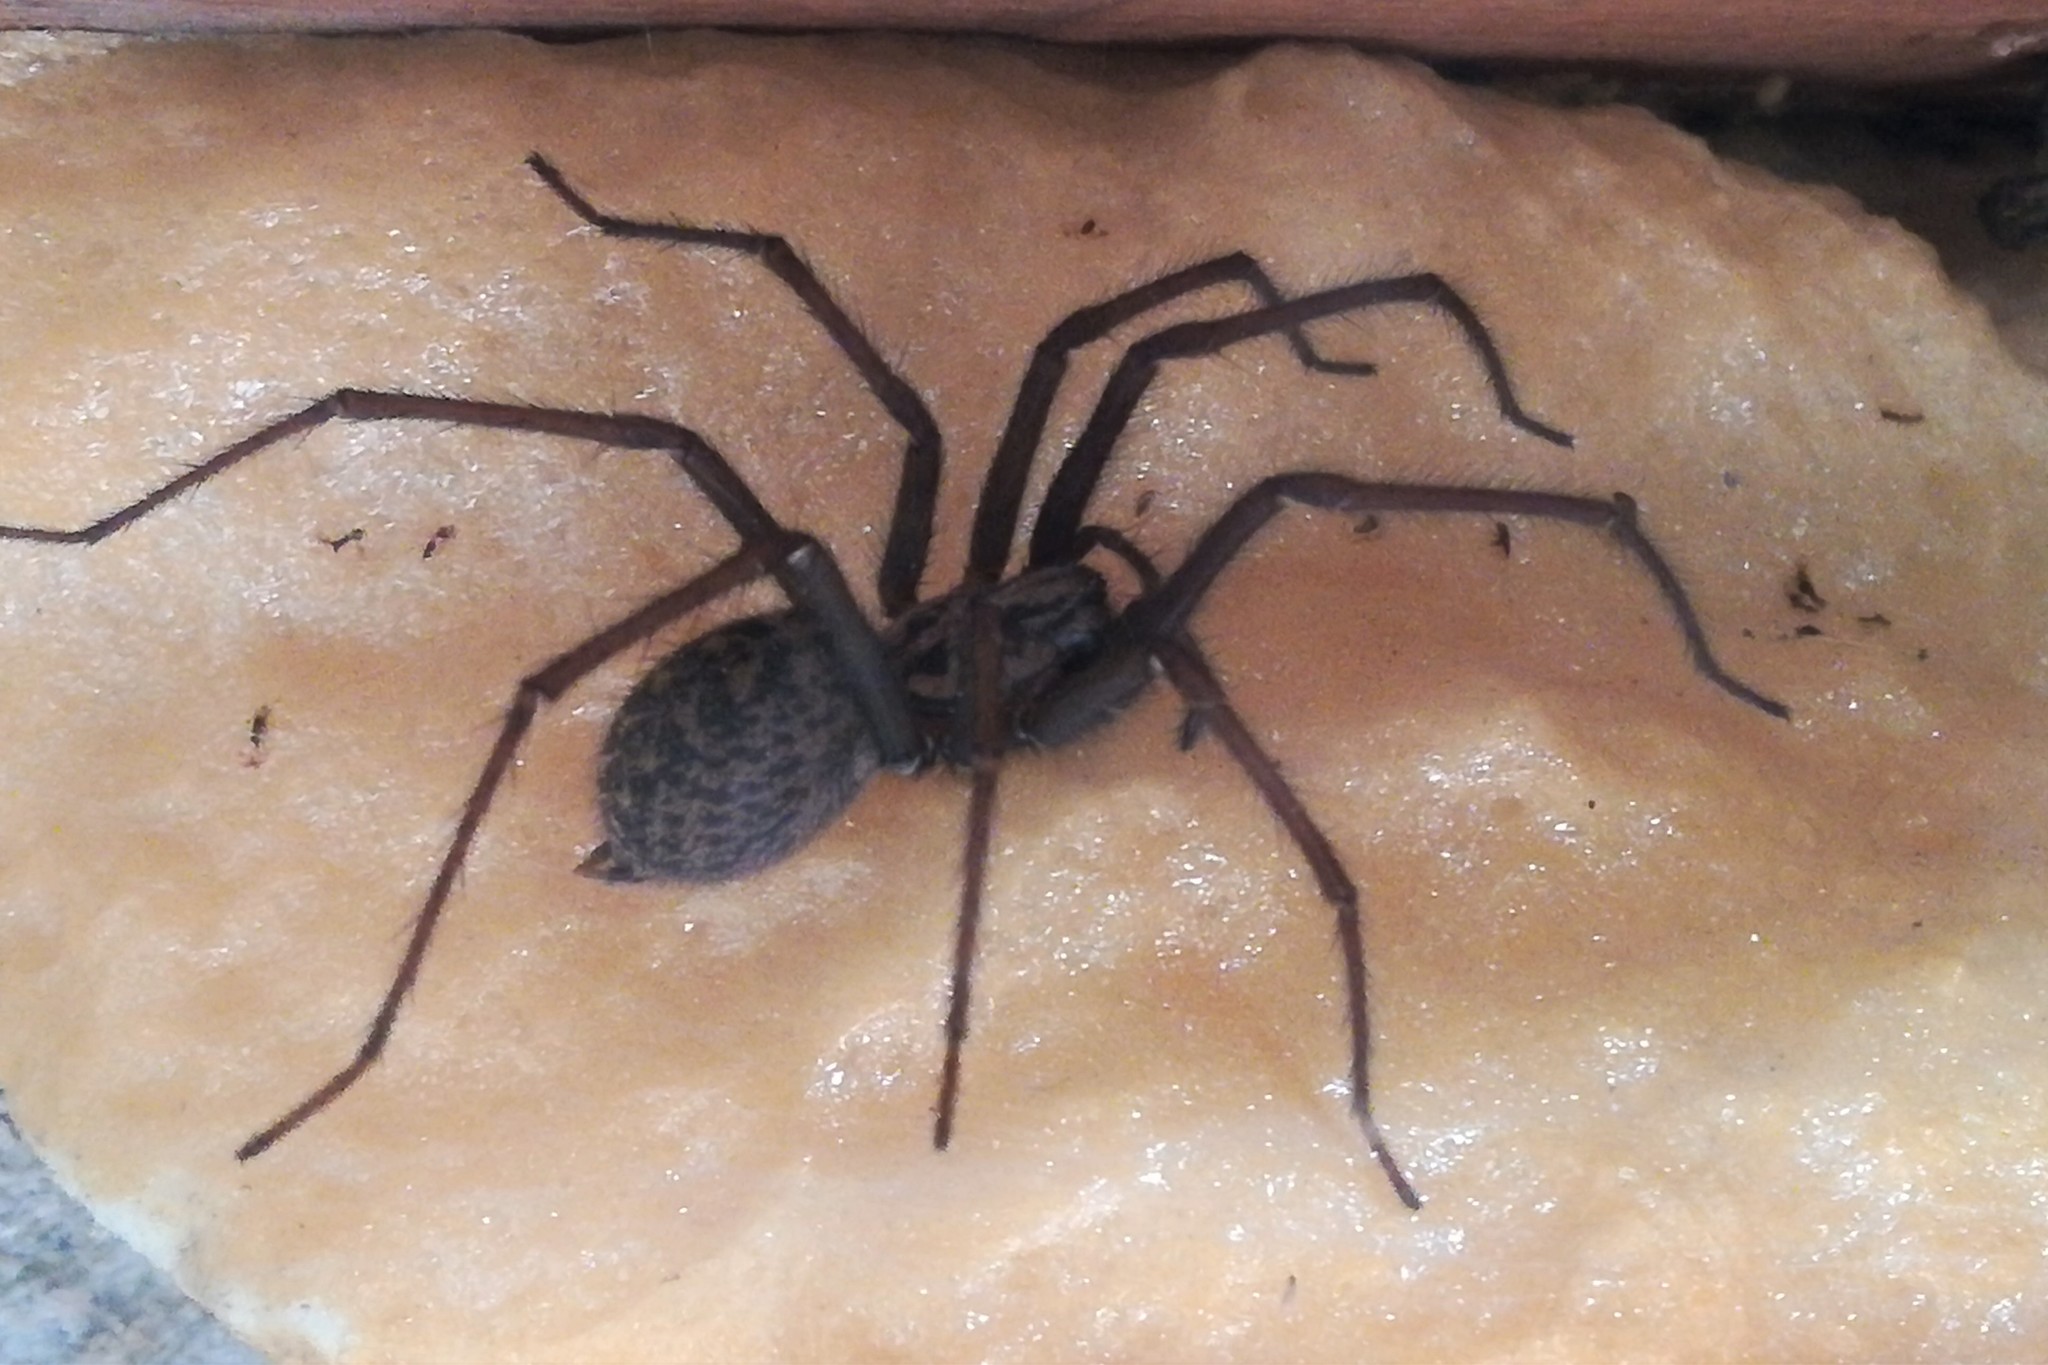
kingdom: Animalia
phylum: Arthropoda
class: Arachnida
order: Araneae
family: Agelenidae
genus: Eratigena
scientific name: Eratigena
